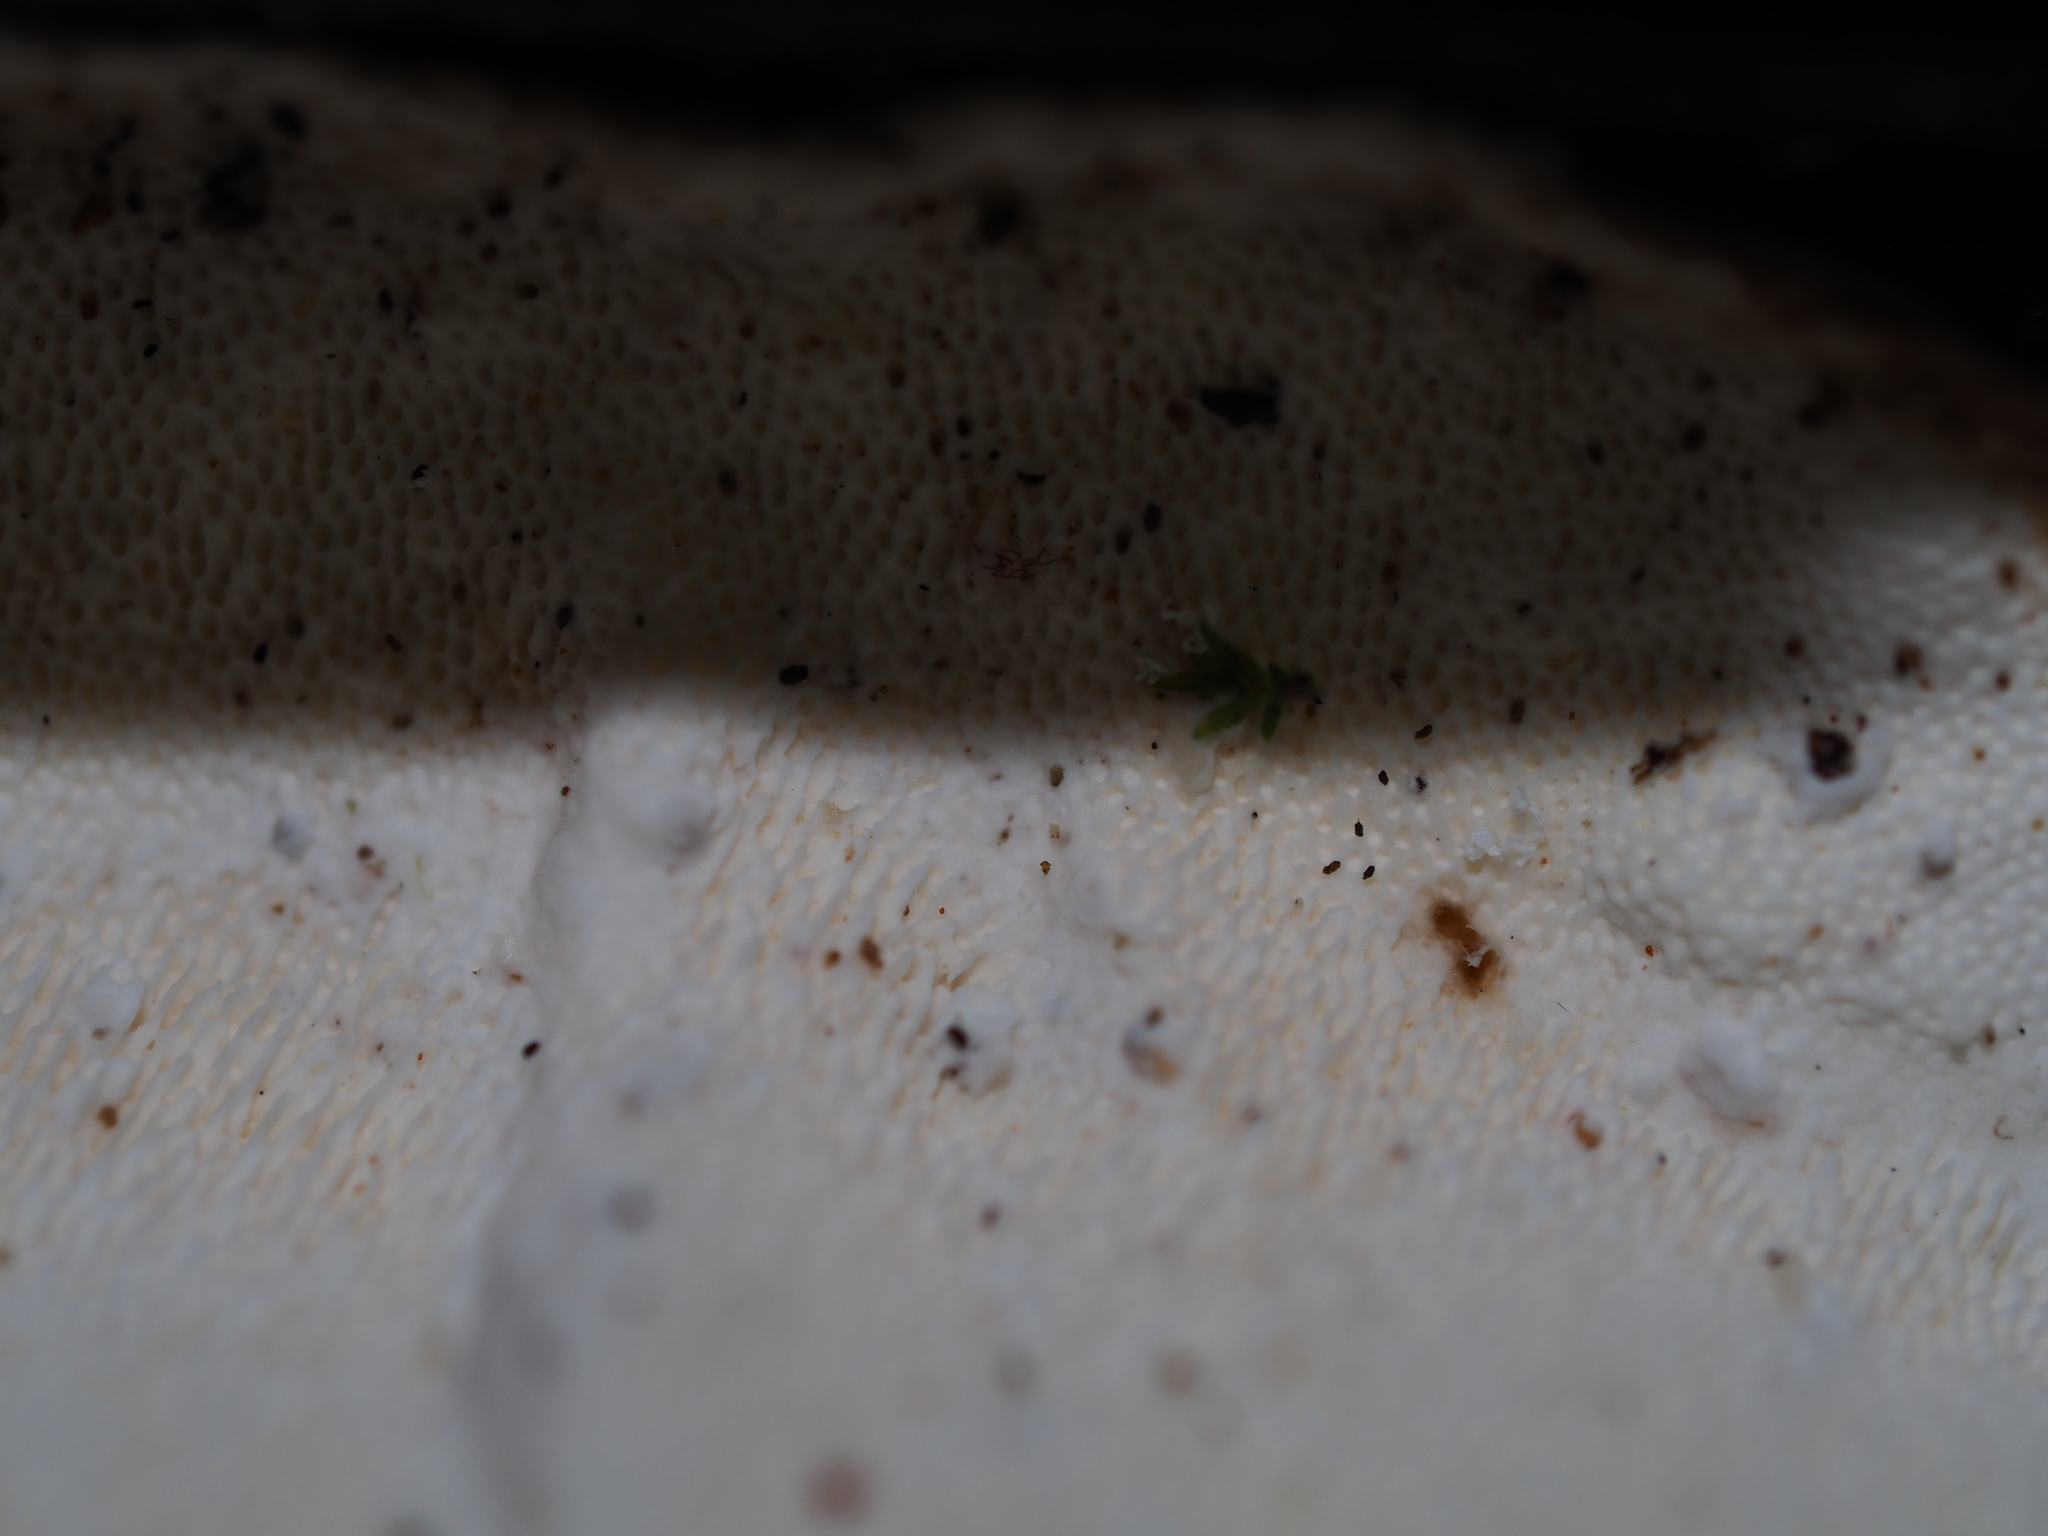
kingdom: Fungi
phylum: Basidiomycota
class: Agaricomycetes
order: Polyporales
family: Polyporaceae
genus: Trametes
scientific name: Trametes versicolor
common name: Turkeytail
